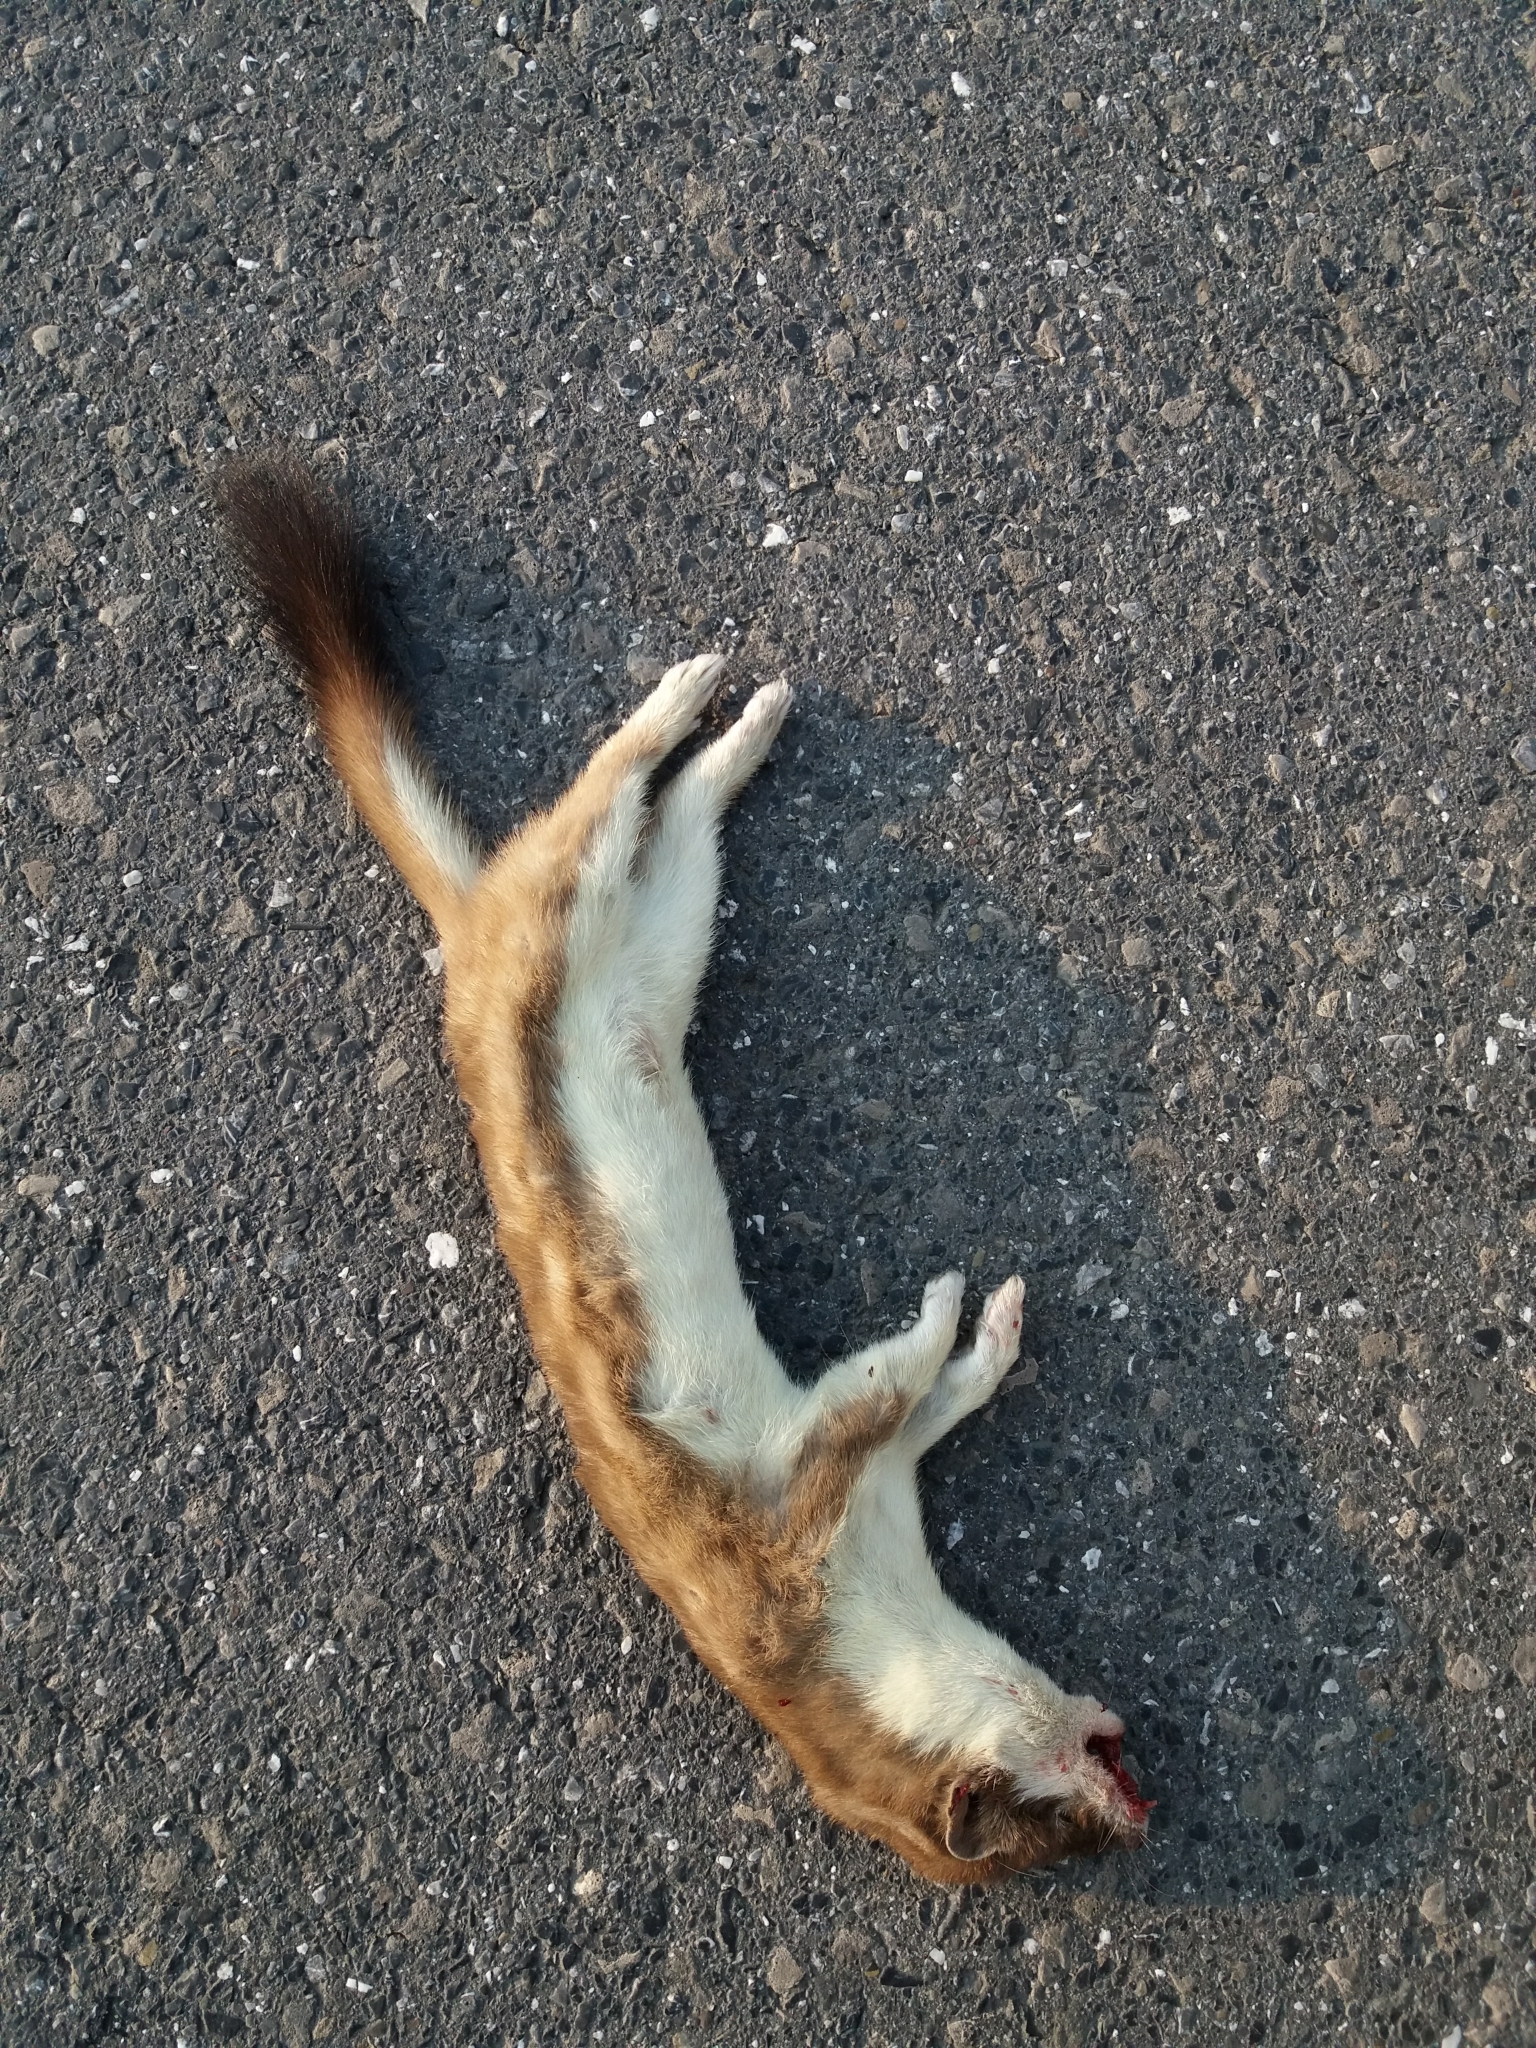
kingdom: Animalia
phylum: Chordata
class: Mammalia
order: Carnivora
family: Mustelidae
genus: Mustela
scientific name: Mustela erminea
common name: Stoat
